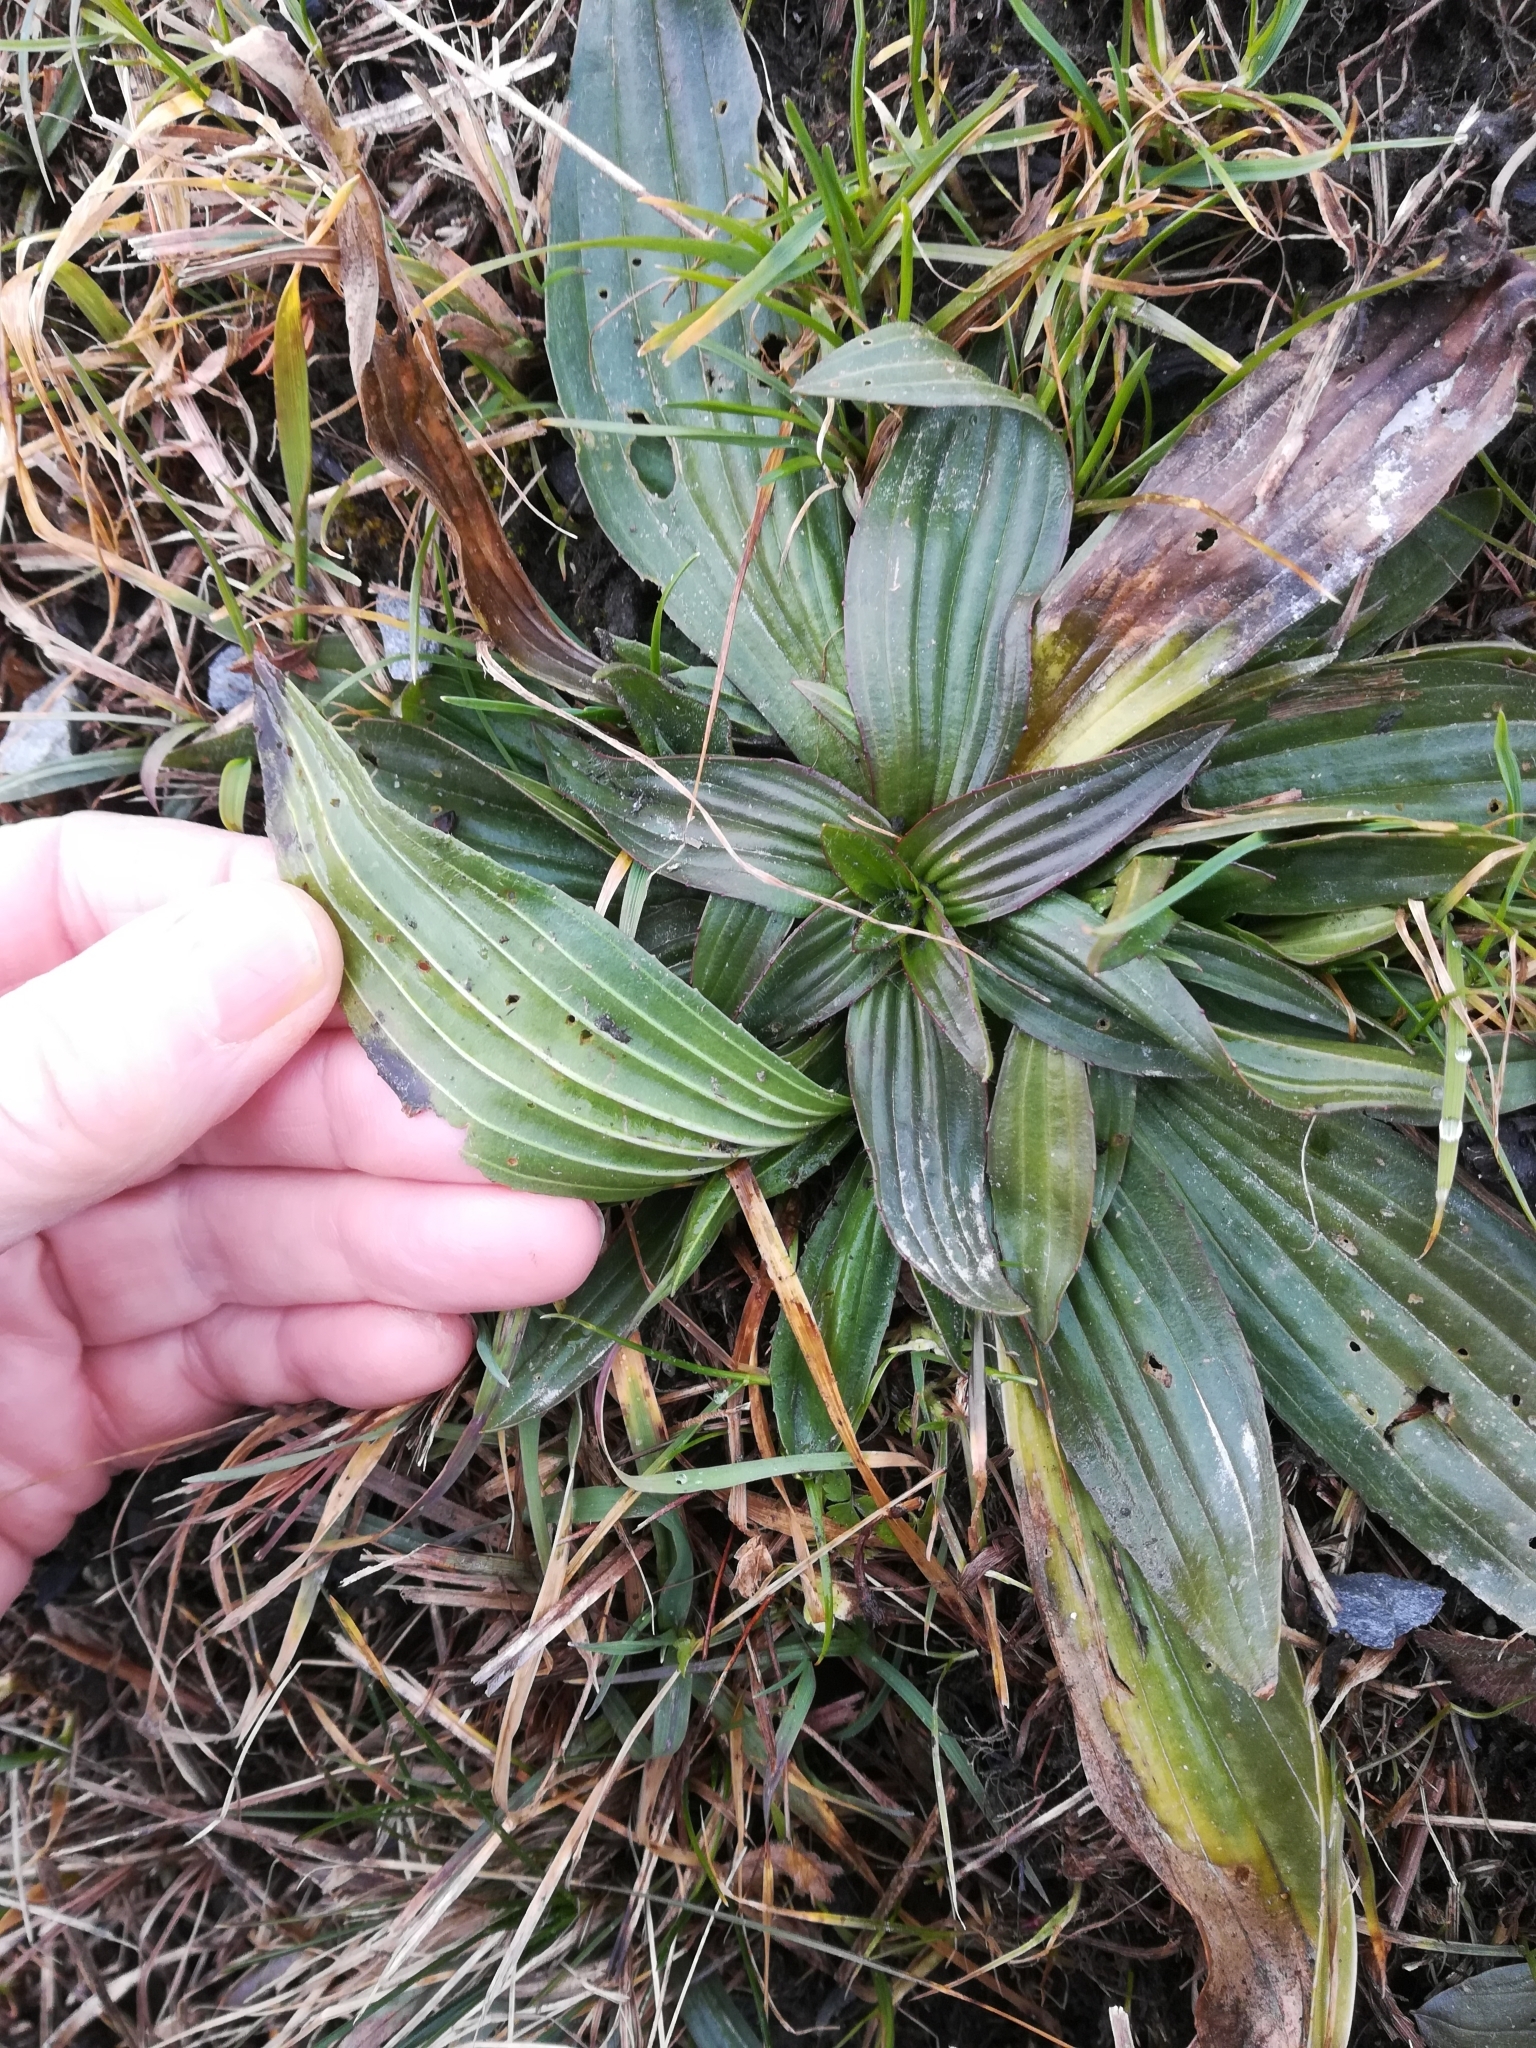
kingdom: Plantae
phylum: Tracheophyta
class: Magnoliopsida
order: Lamiales
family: Plantaginaceae
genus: Plantago
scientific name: Plantago lanceolata
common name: Ribwort plantain
